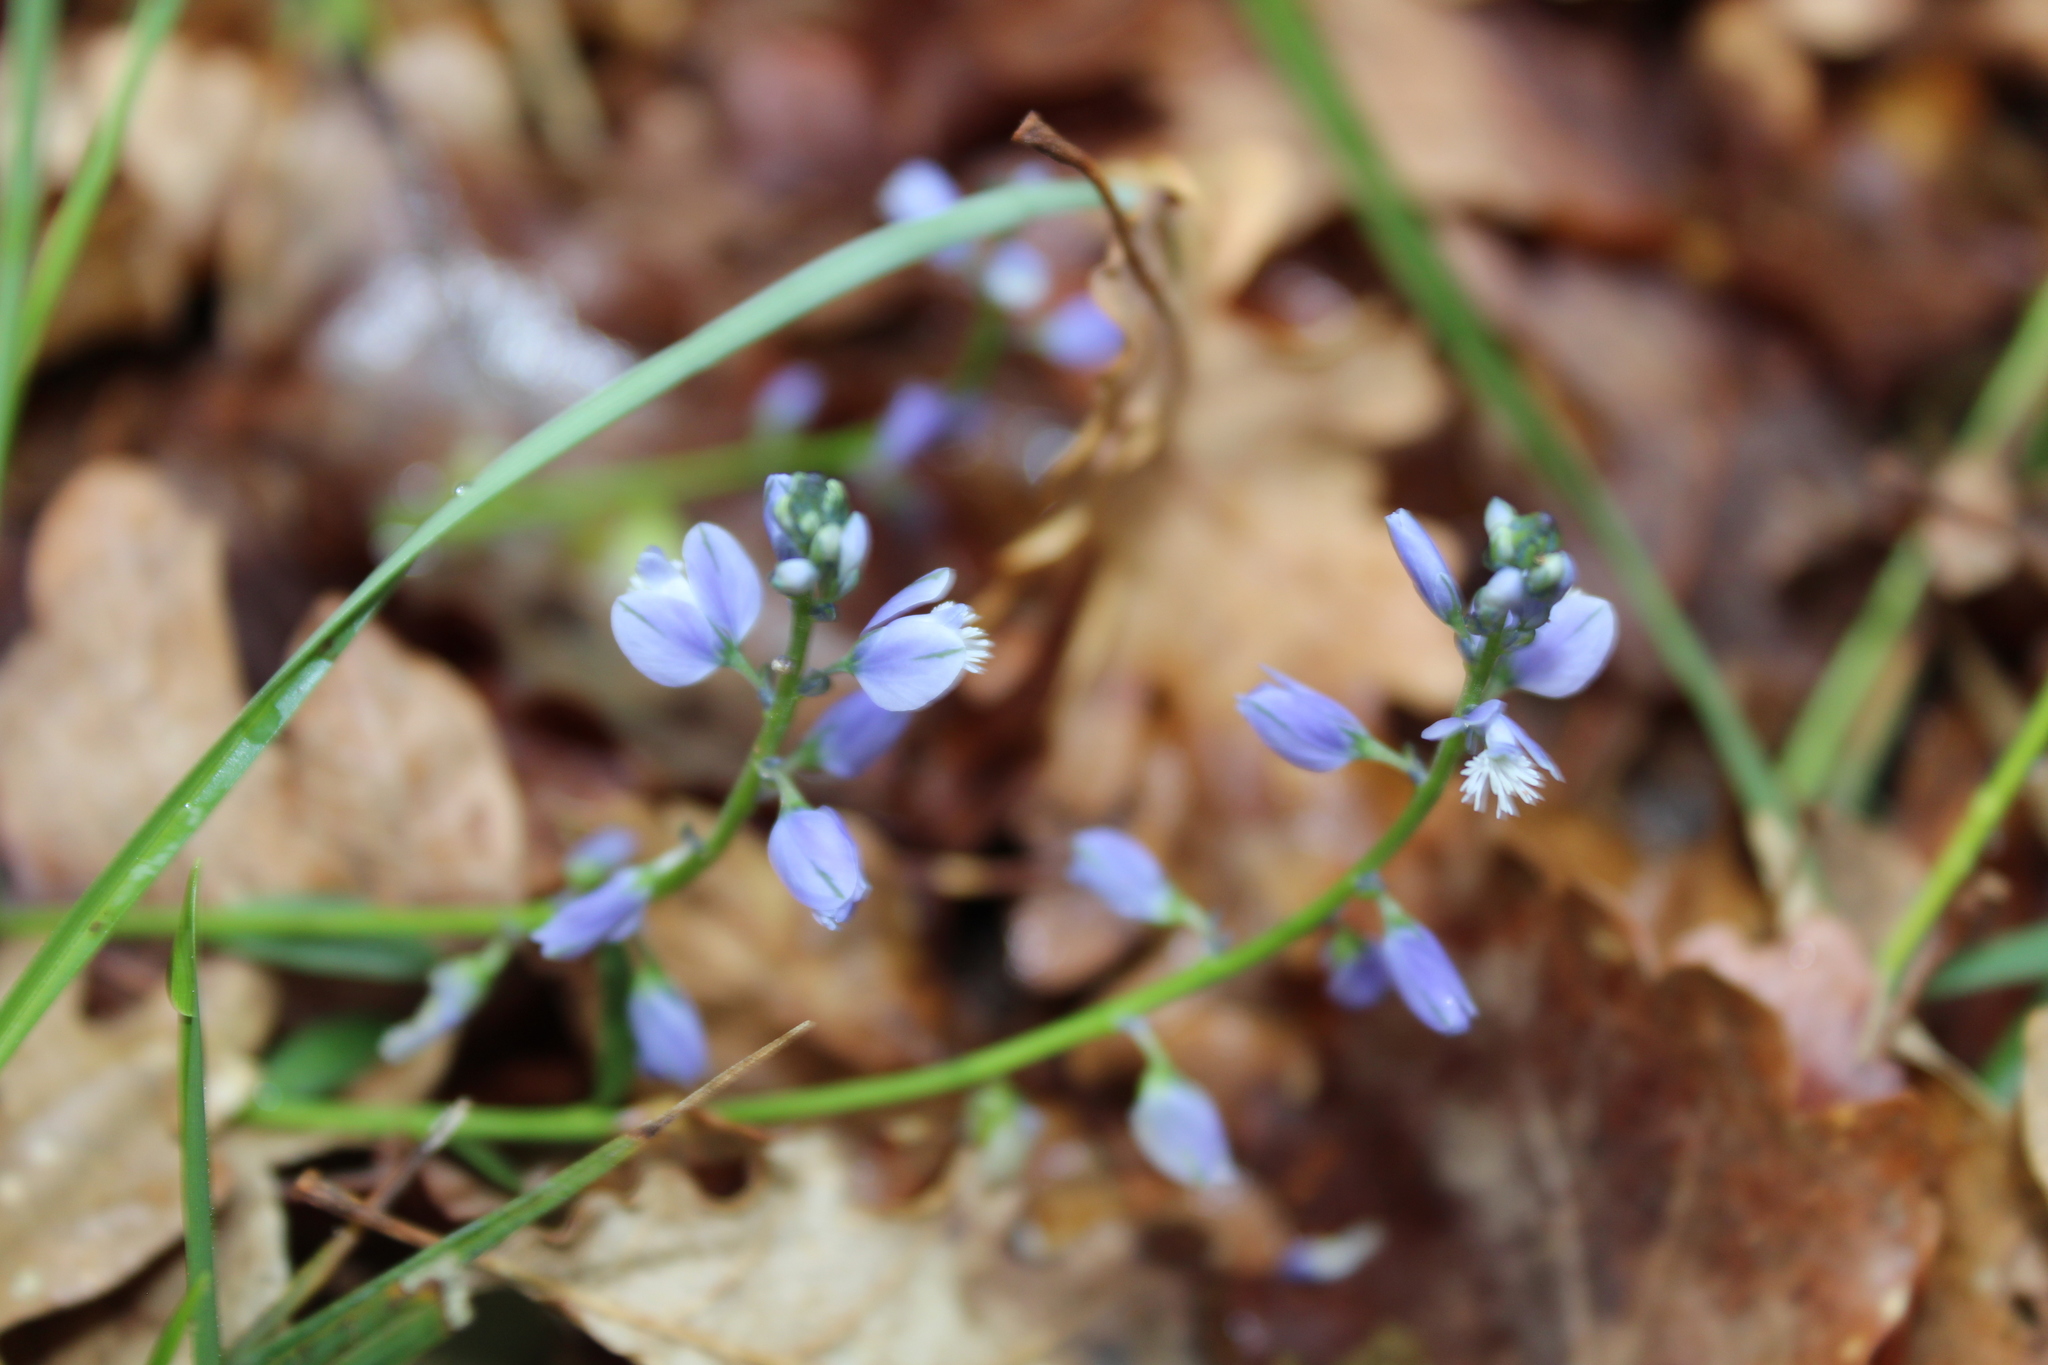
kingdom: Plantae
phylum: Tracheophyta
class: Magnoliopsida
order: Fabales
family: Polygalaceae
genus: Polygala
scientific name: Polygala vulgaris
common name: Common milkwort
